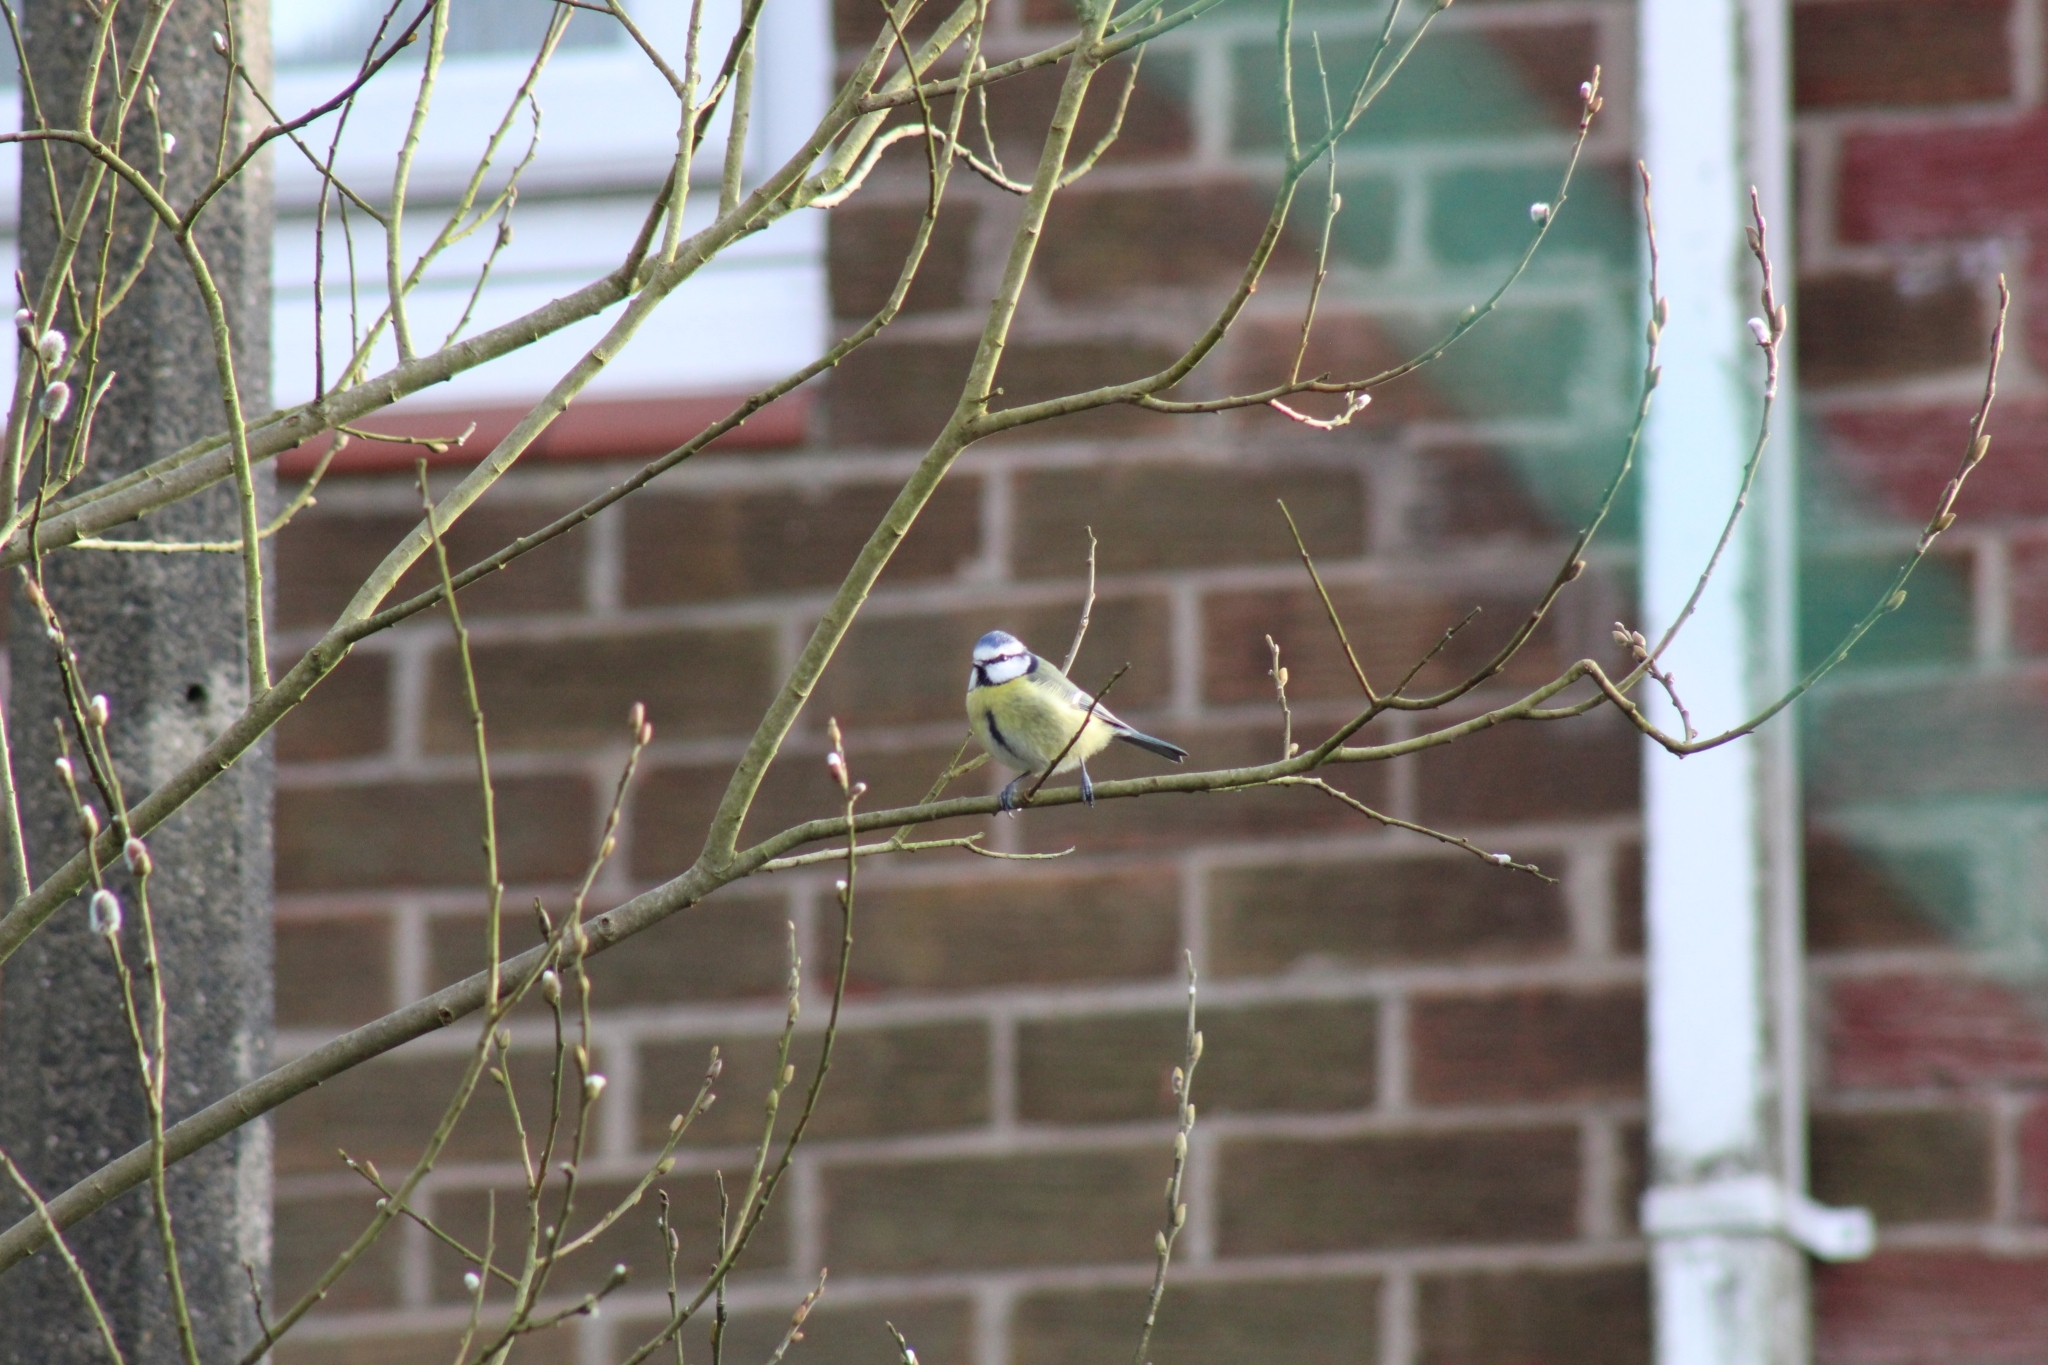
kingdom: Animalia
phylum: Chordata
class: Aves
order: Passeriformes
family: Paridae
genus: Cyanistes
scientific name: Cyanistes caeruleus
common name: Eurasian blue tit
